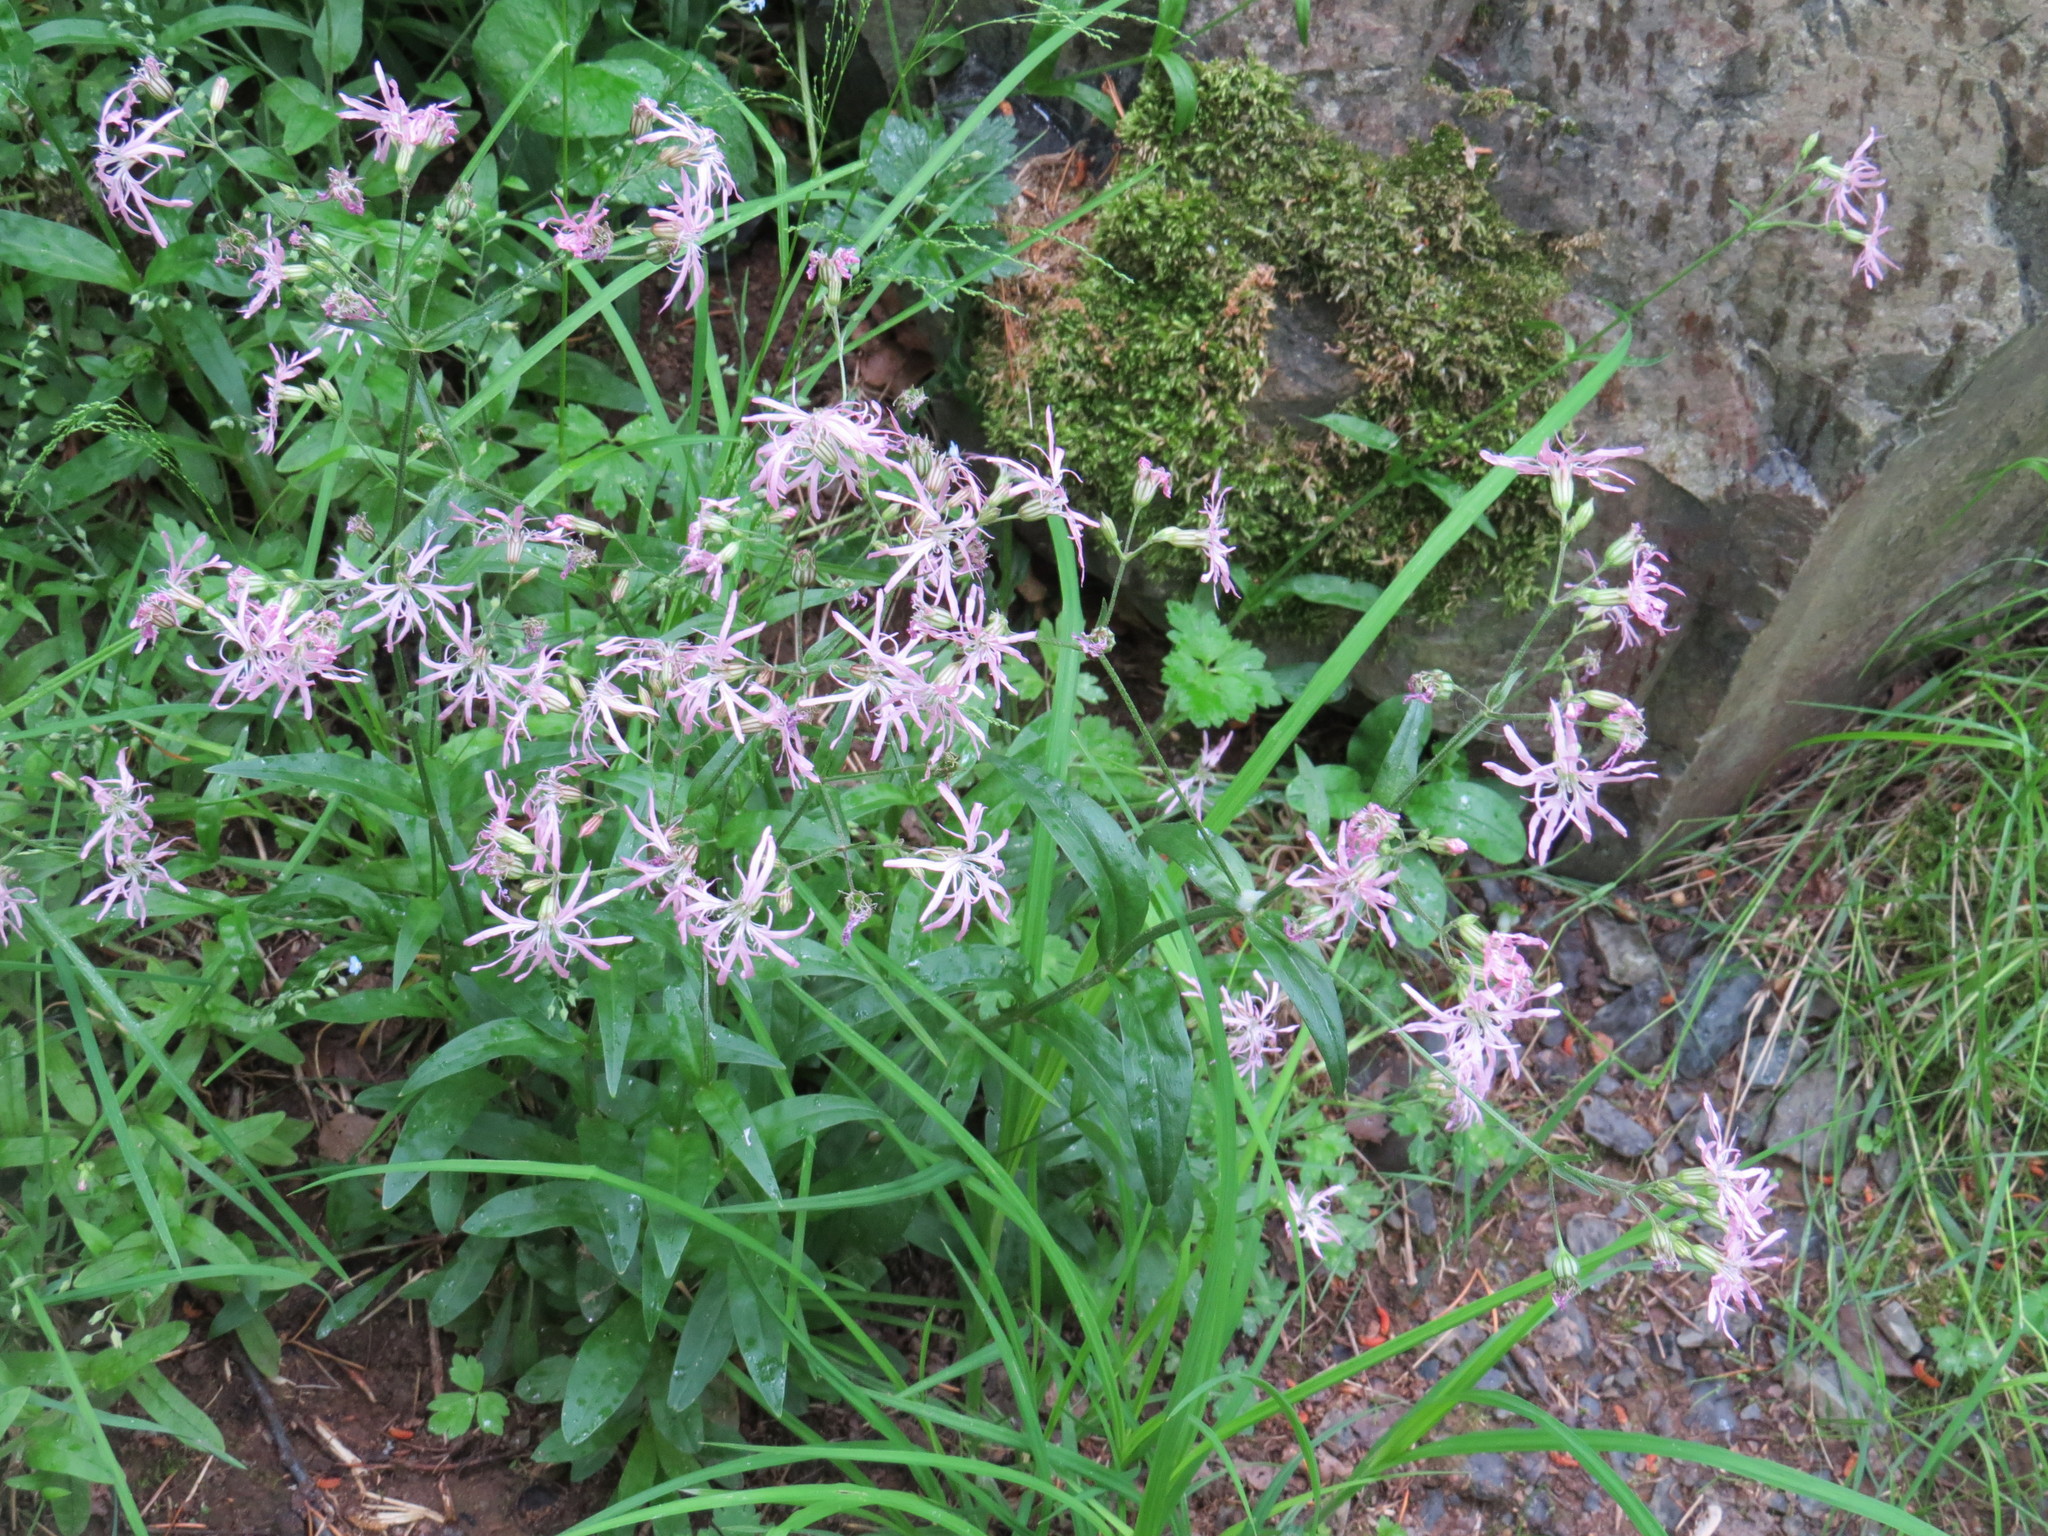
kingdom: Plantae
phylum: Tracheophyta
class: Magnoliopsida
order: Caryophyllales
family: Caryophyllaceae
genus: Silene
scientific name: Silene flos-cuculi
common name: Ragged-robin
